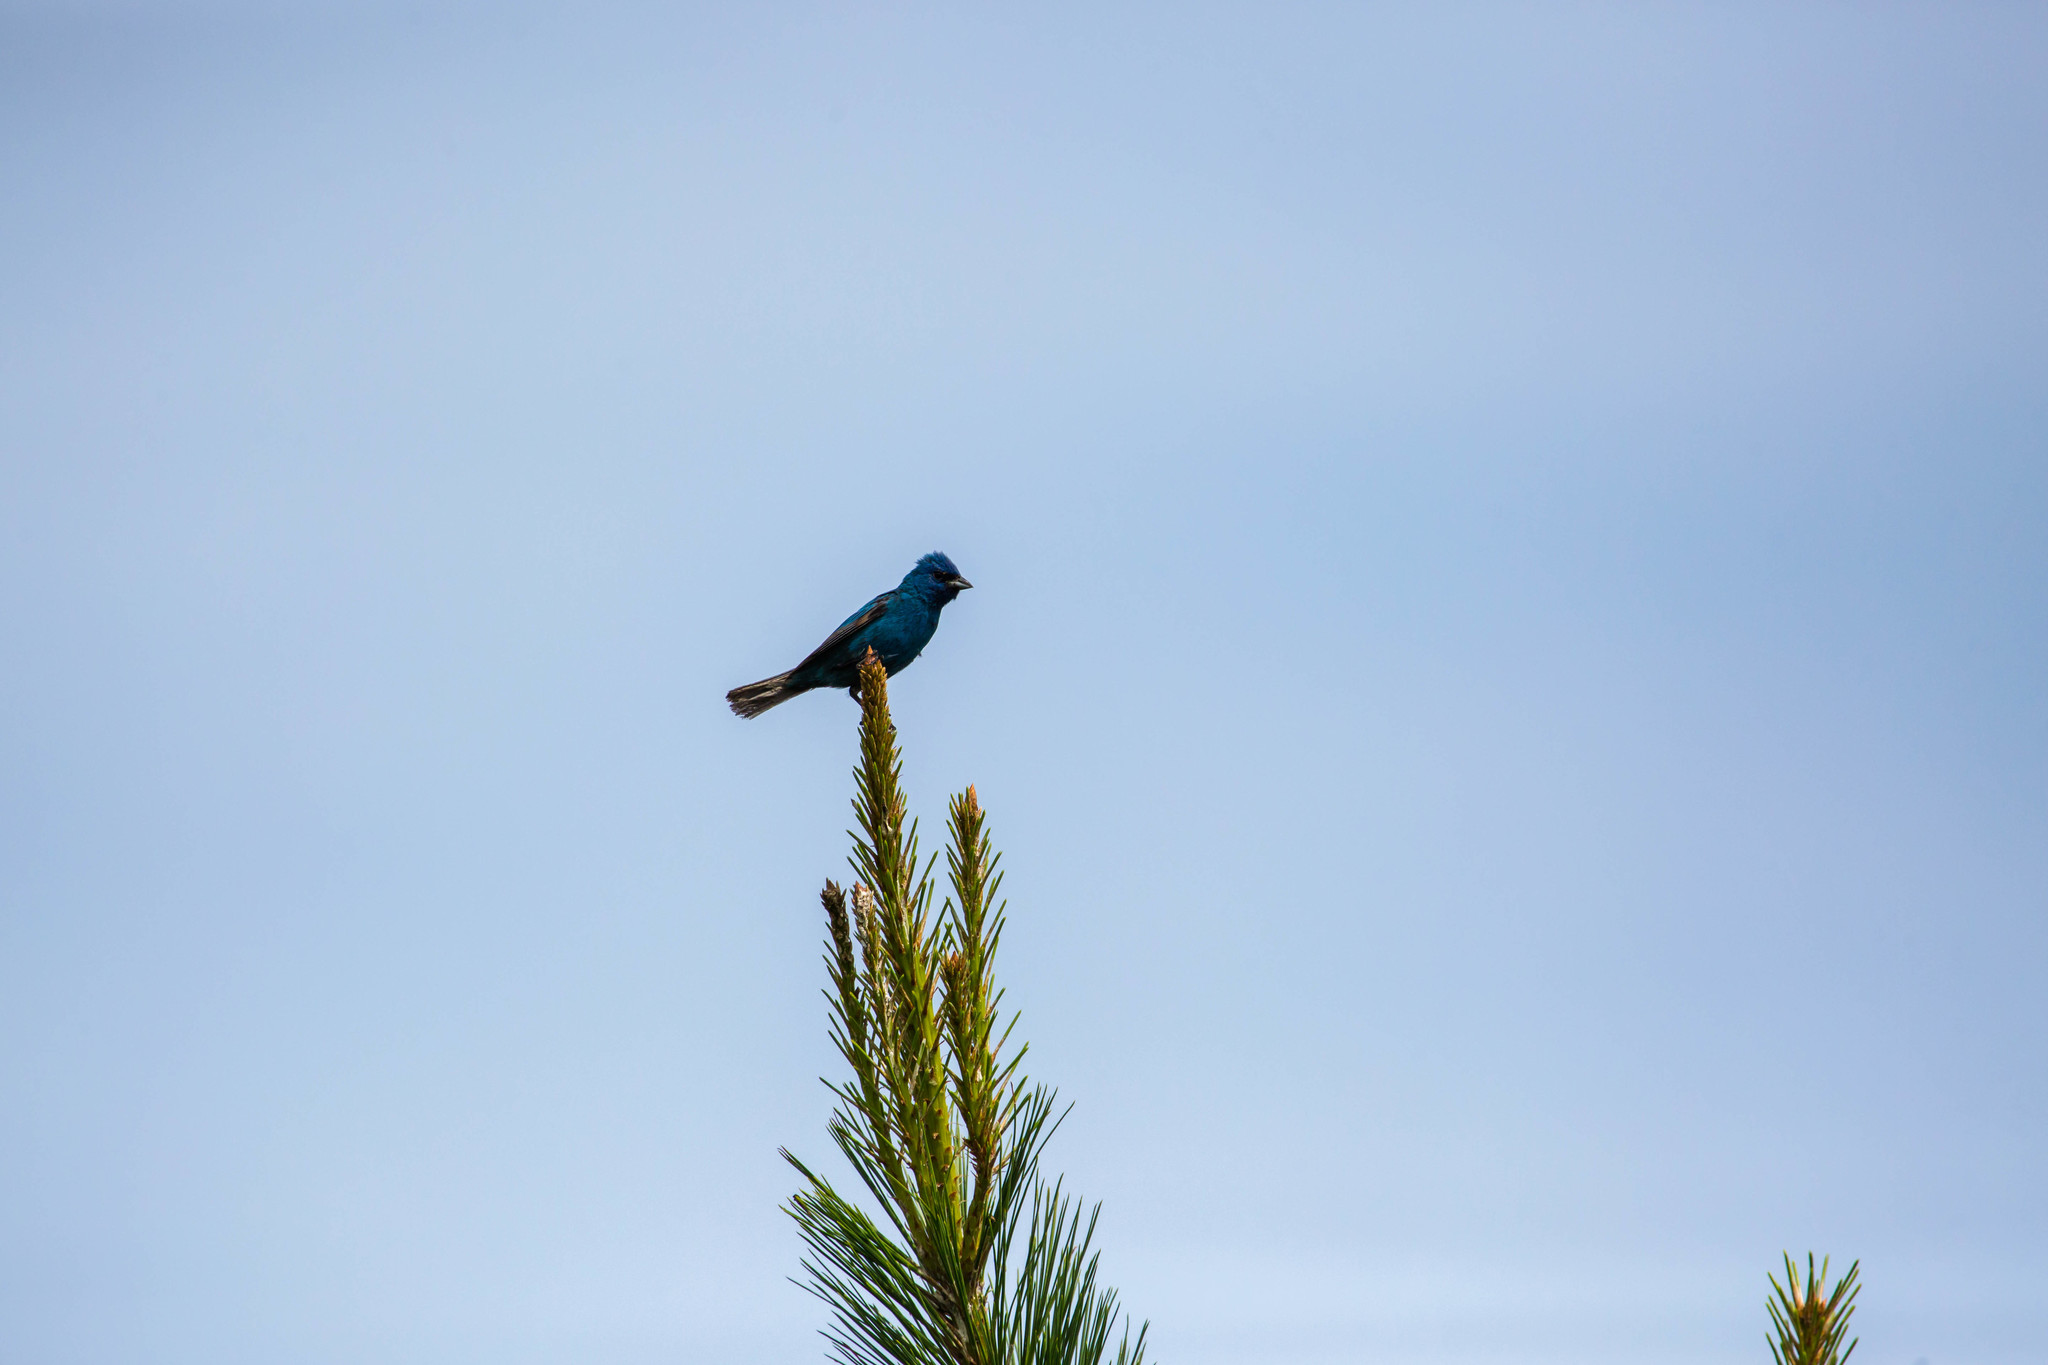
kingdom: Animalia
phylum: Chordata
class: Aves
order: Passeriformes
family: Cardinalidae
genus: Passerina
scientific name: Passerina cyanea
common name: Indigo bunting
